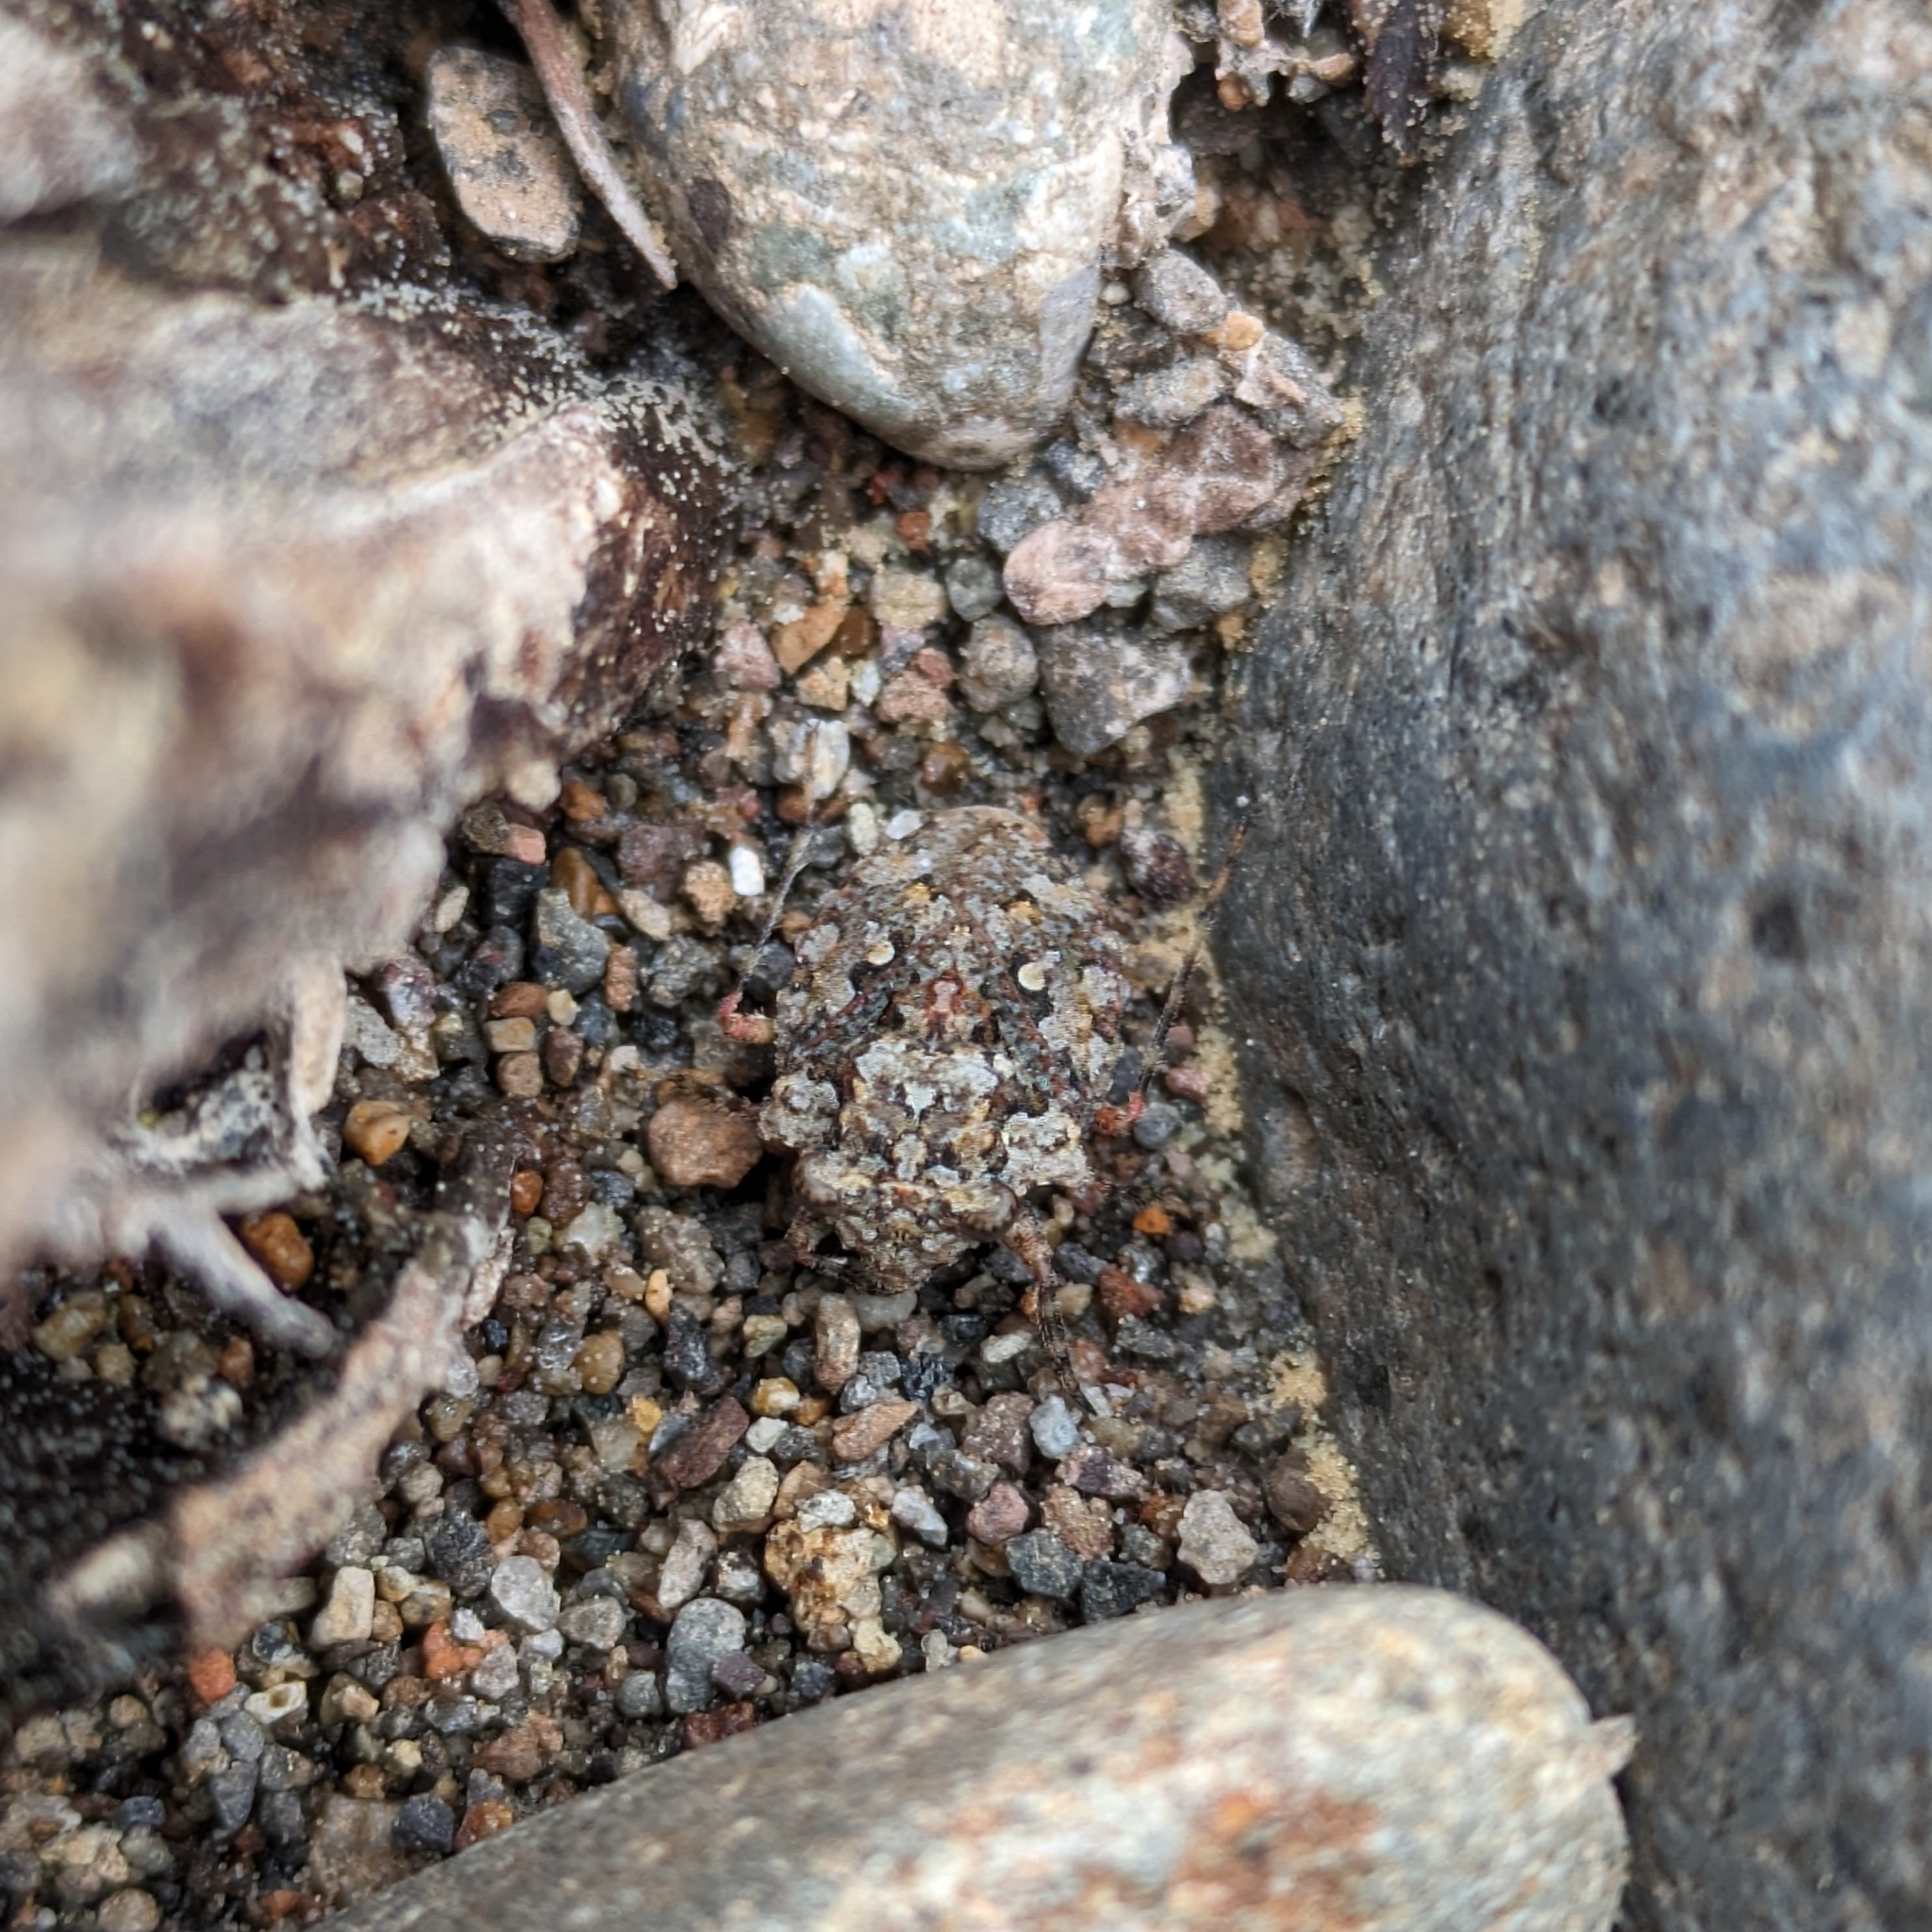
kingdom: Animalia
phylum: Arthropoda
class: Insecta
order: Hemiptera
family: Gelastocoridae
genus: Gelastocoris
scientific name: Gelastocoris oculatus
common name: Toad bug
